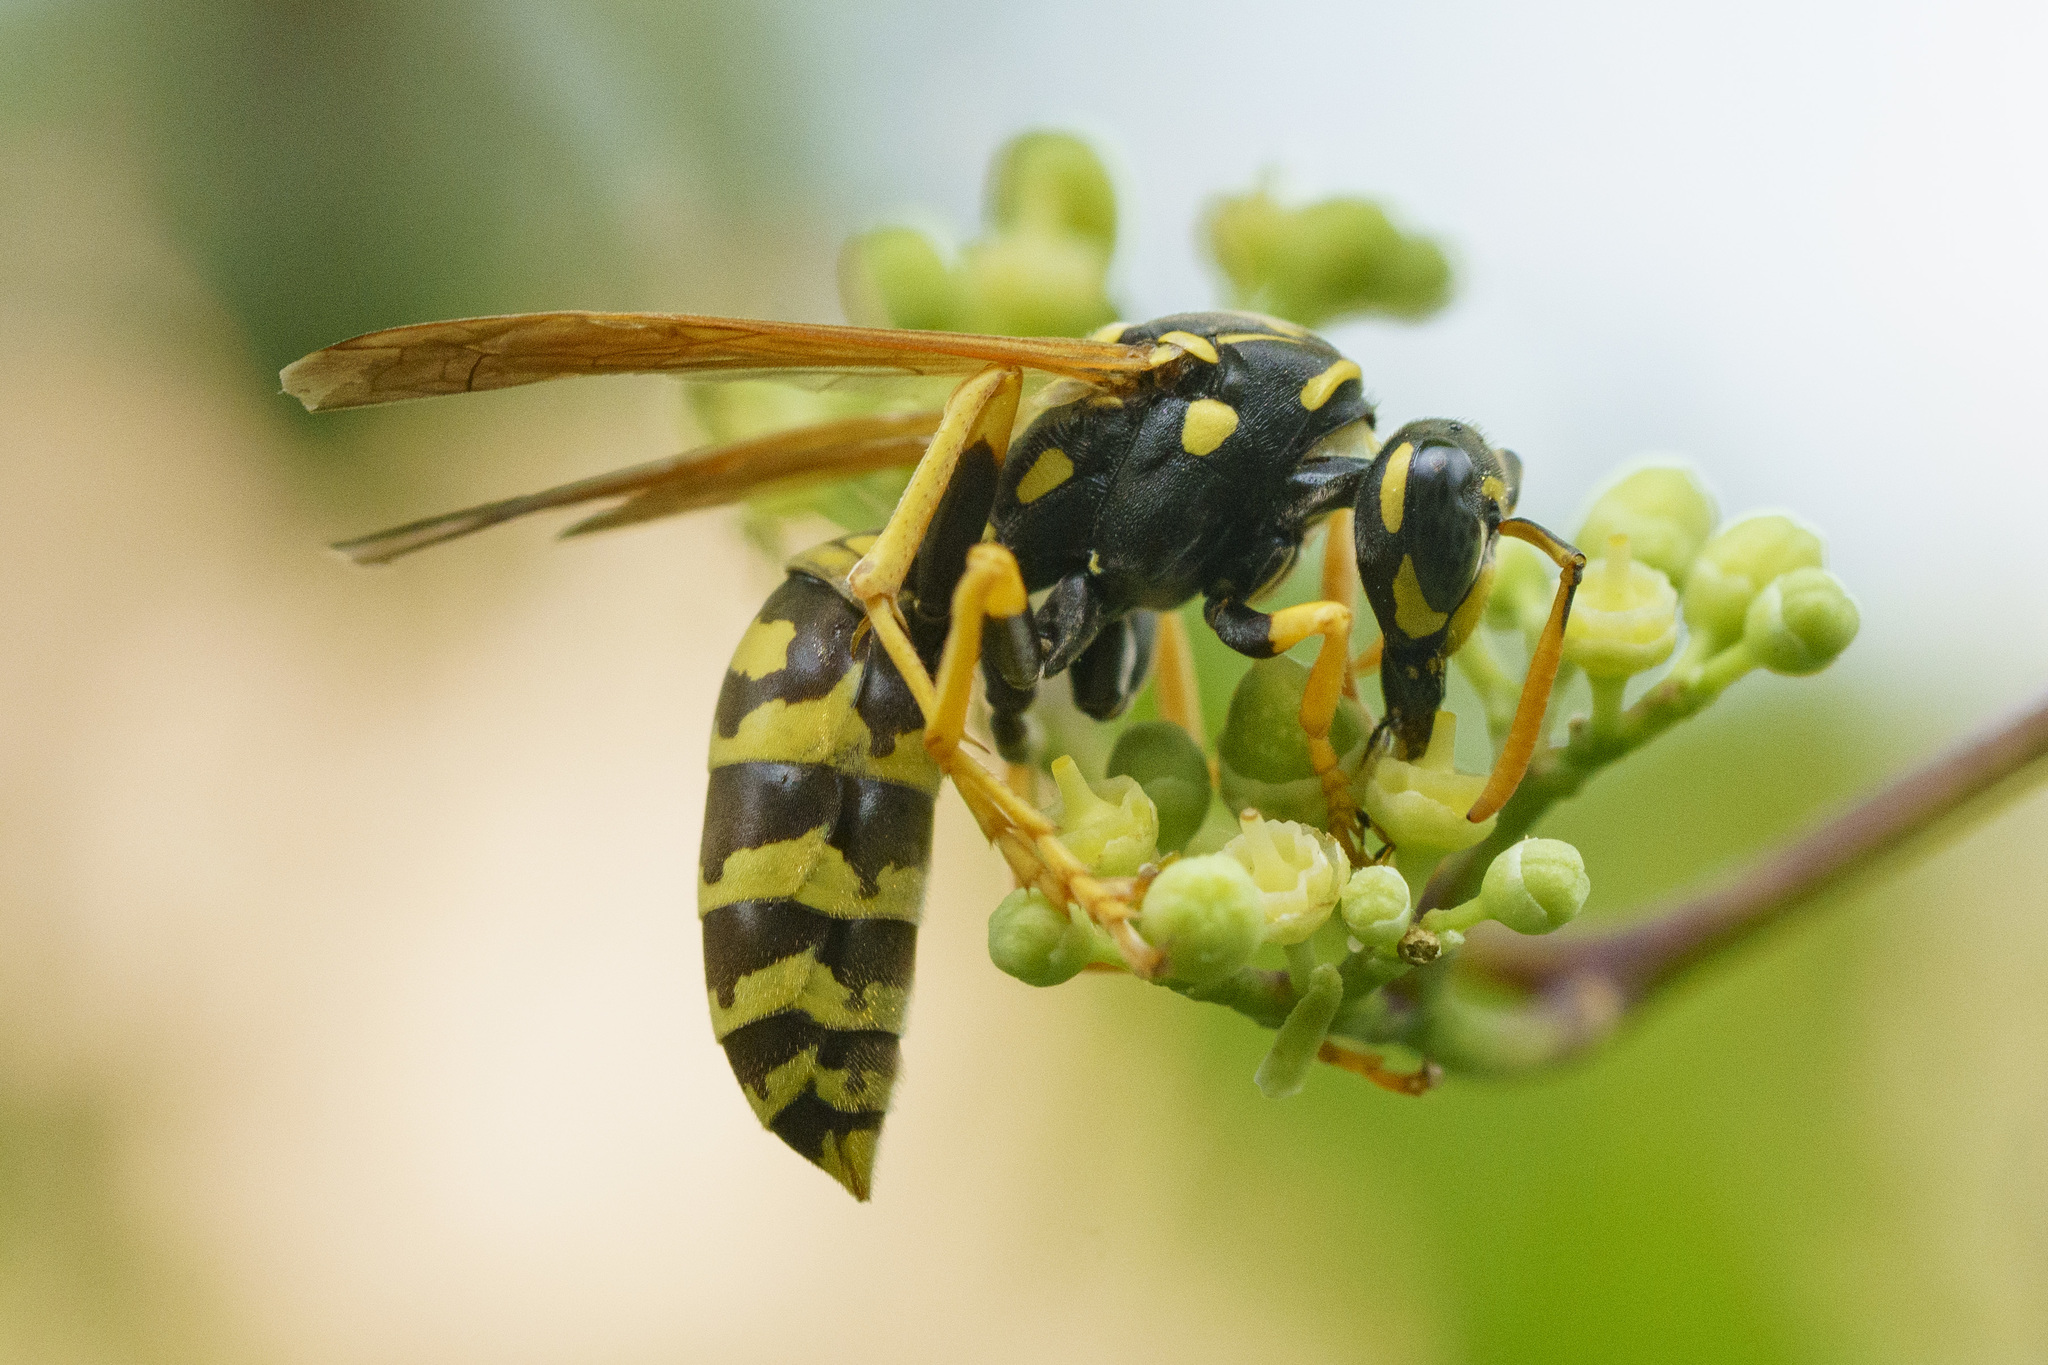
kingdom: Animalia
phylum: Arthropoda
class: Insecta
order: Hymenoptera
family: Eumenidae
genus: Polistes
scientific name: Polistes dominula
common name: Paper wasp
